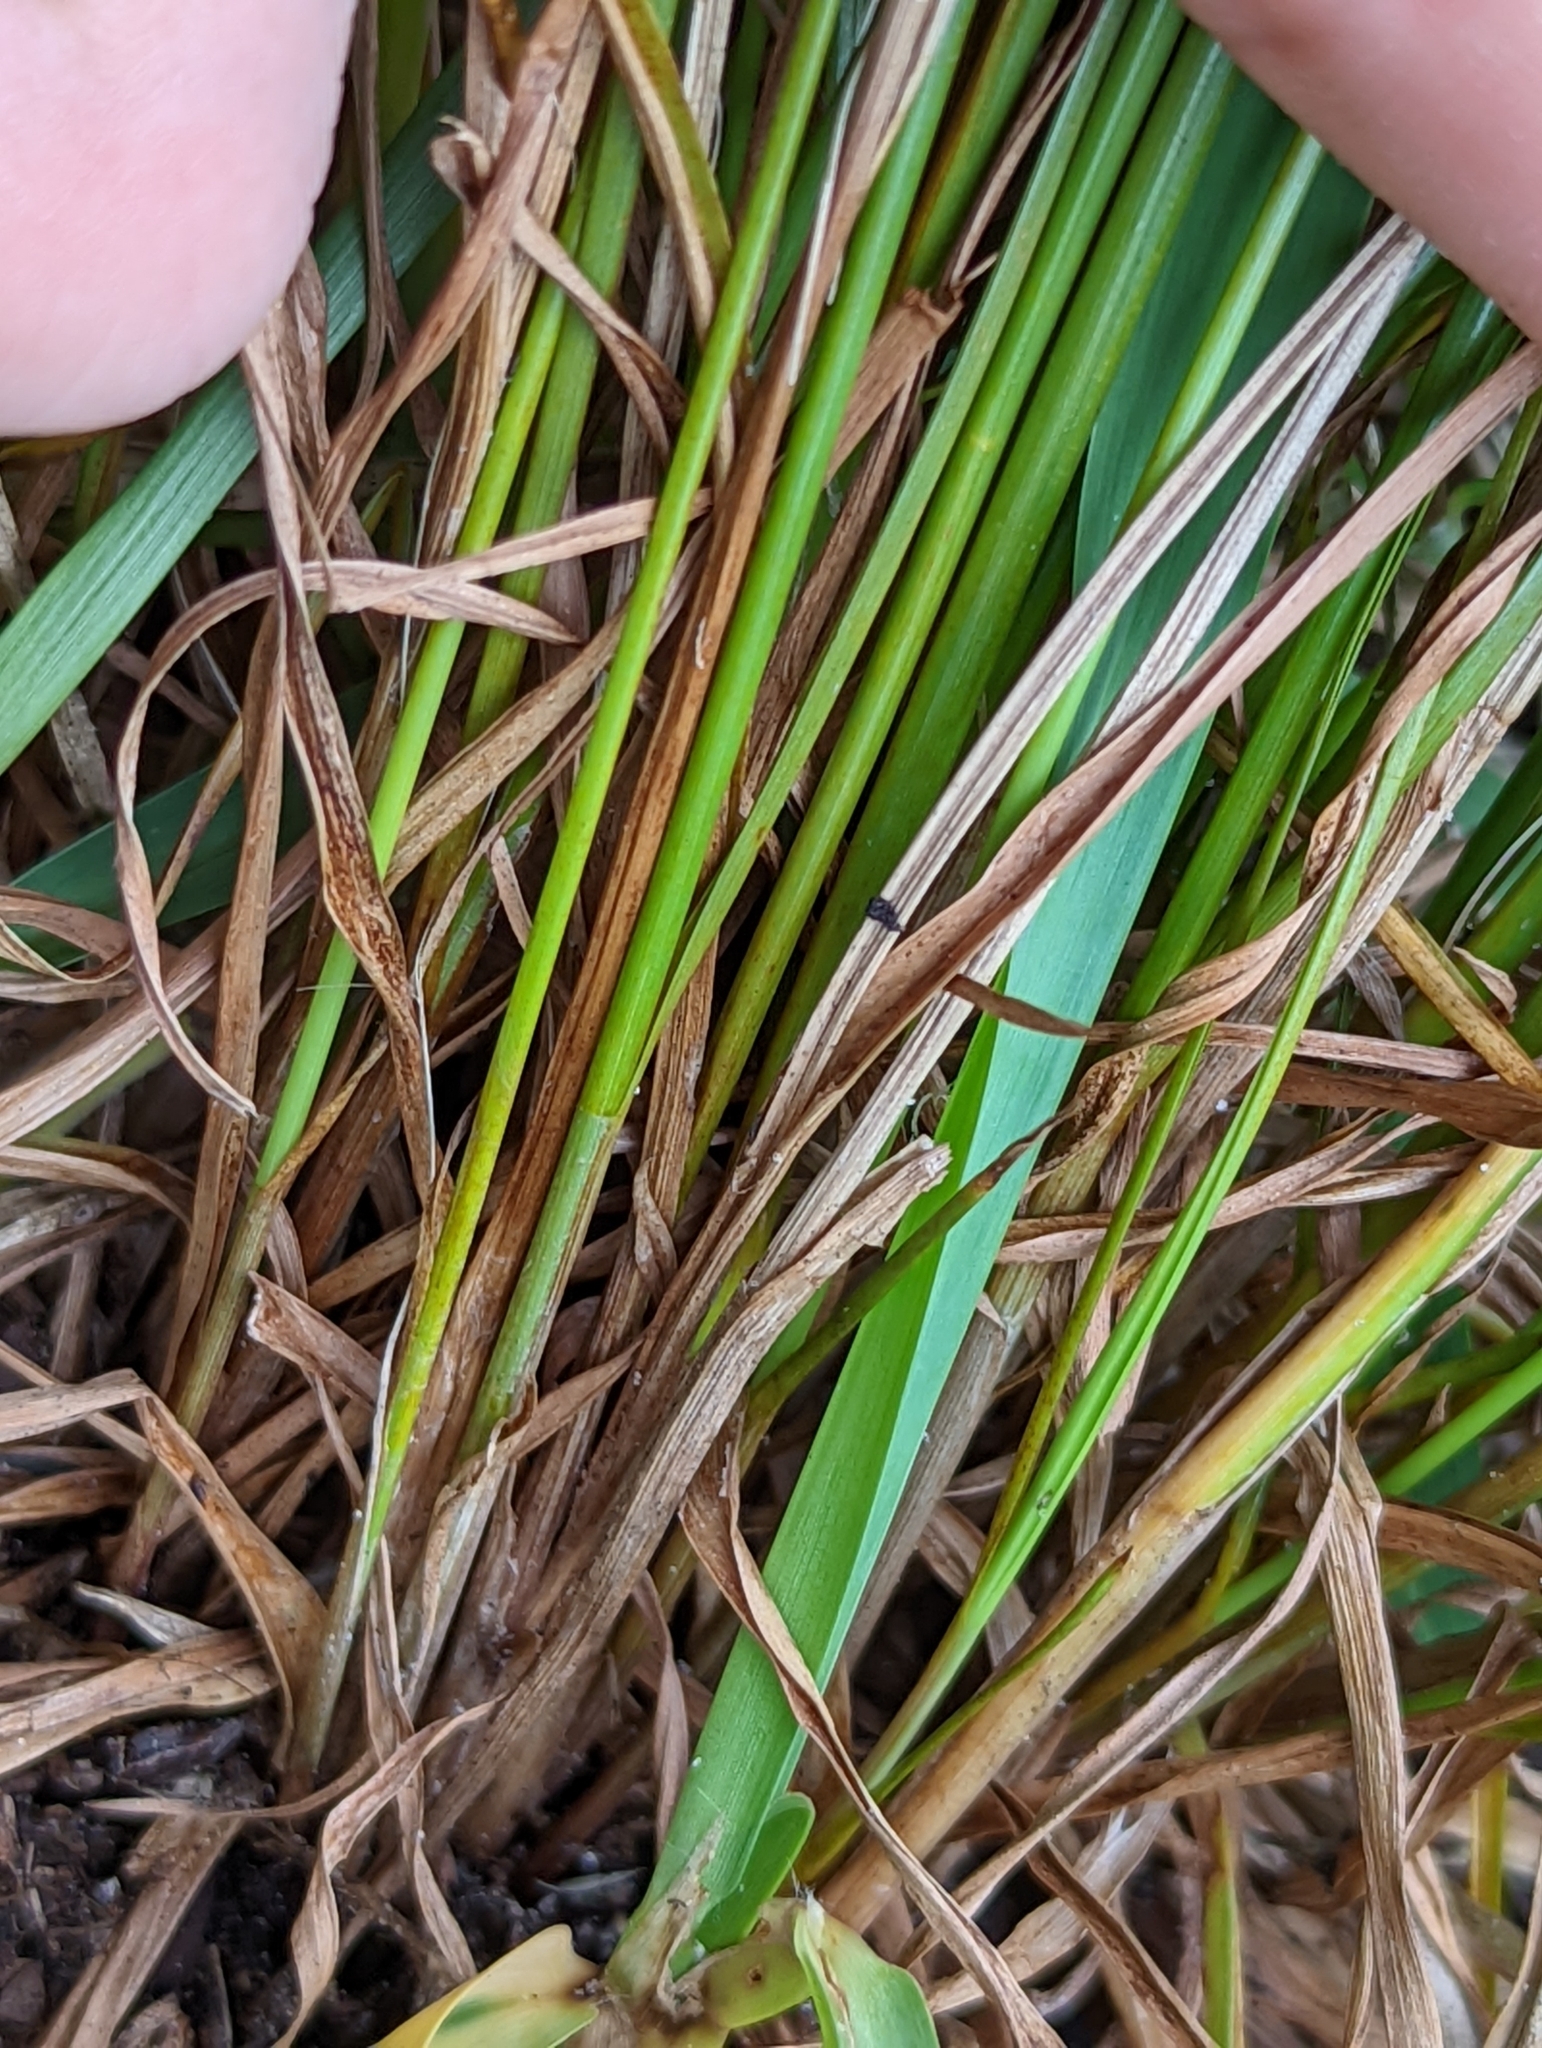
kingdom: Plantae
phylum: Tracheophyta
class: Liliopsida
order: Poales
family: Cyperaceae
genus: Cyperus
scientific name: Cyperus polystachyos
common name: Bunchy flat sedge
